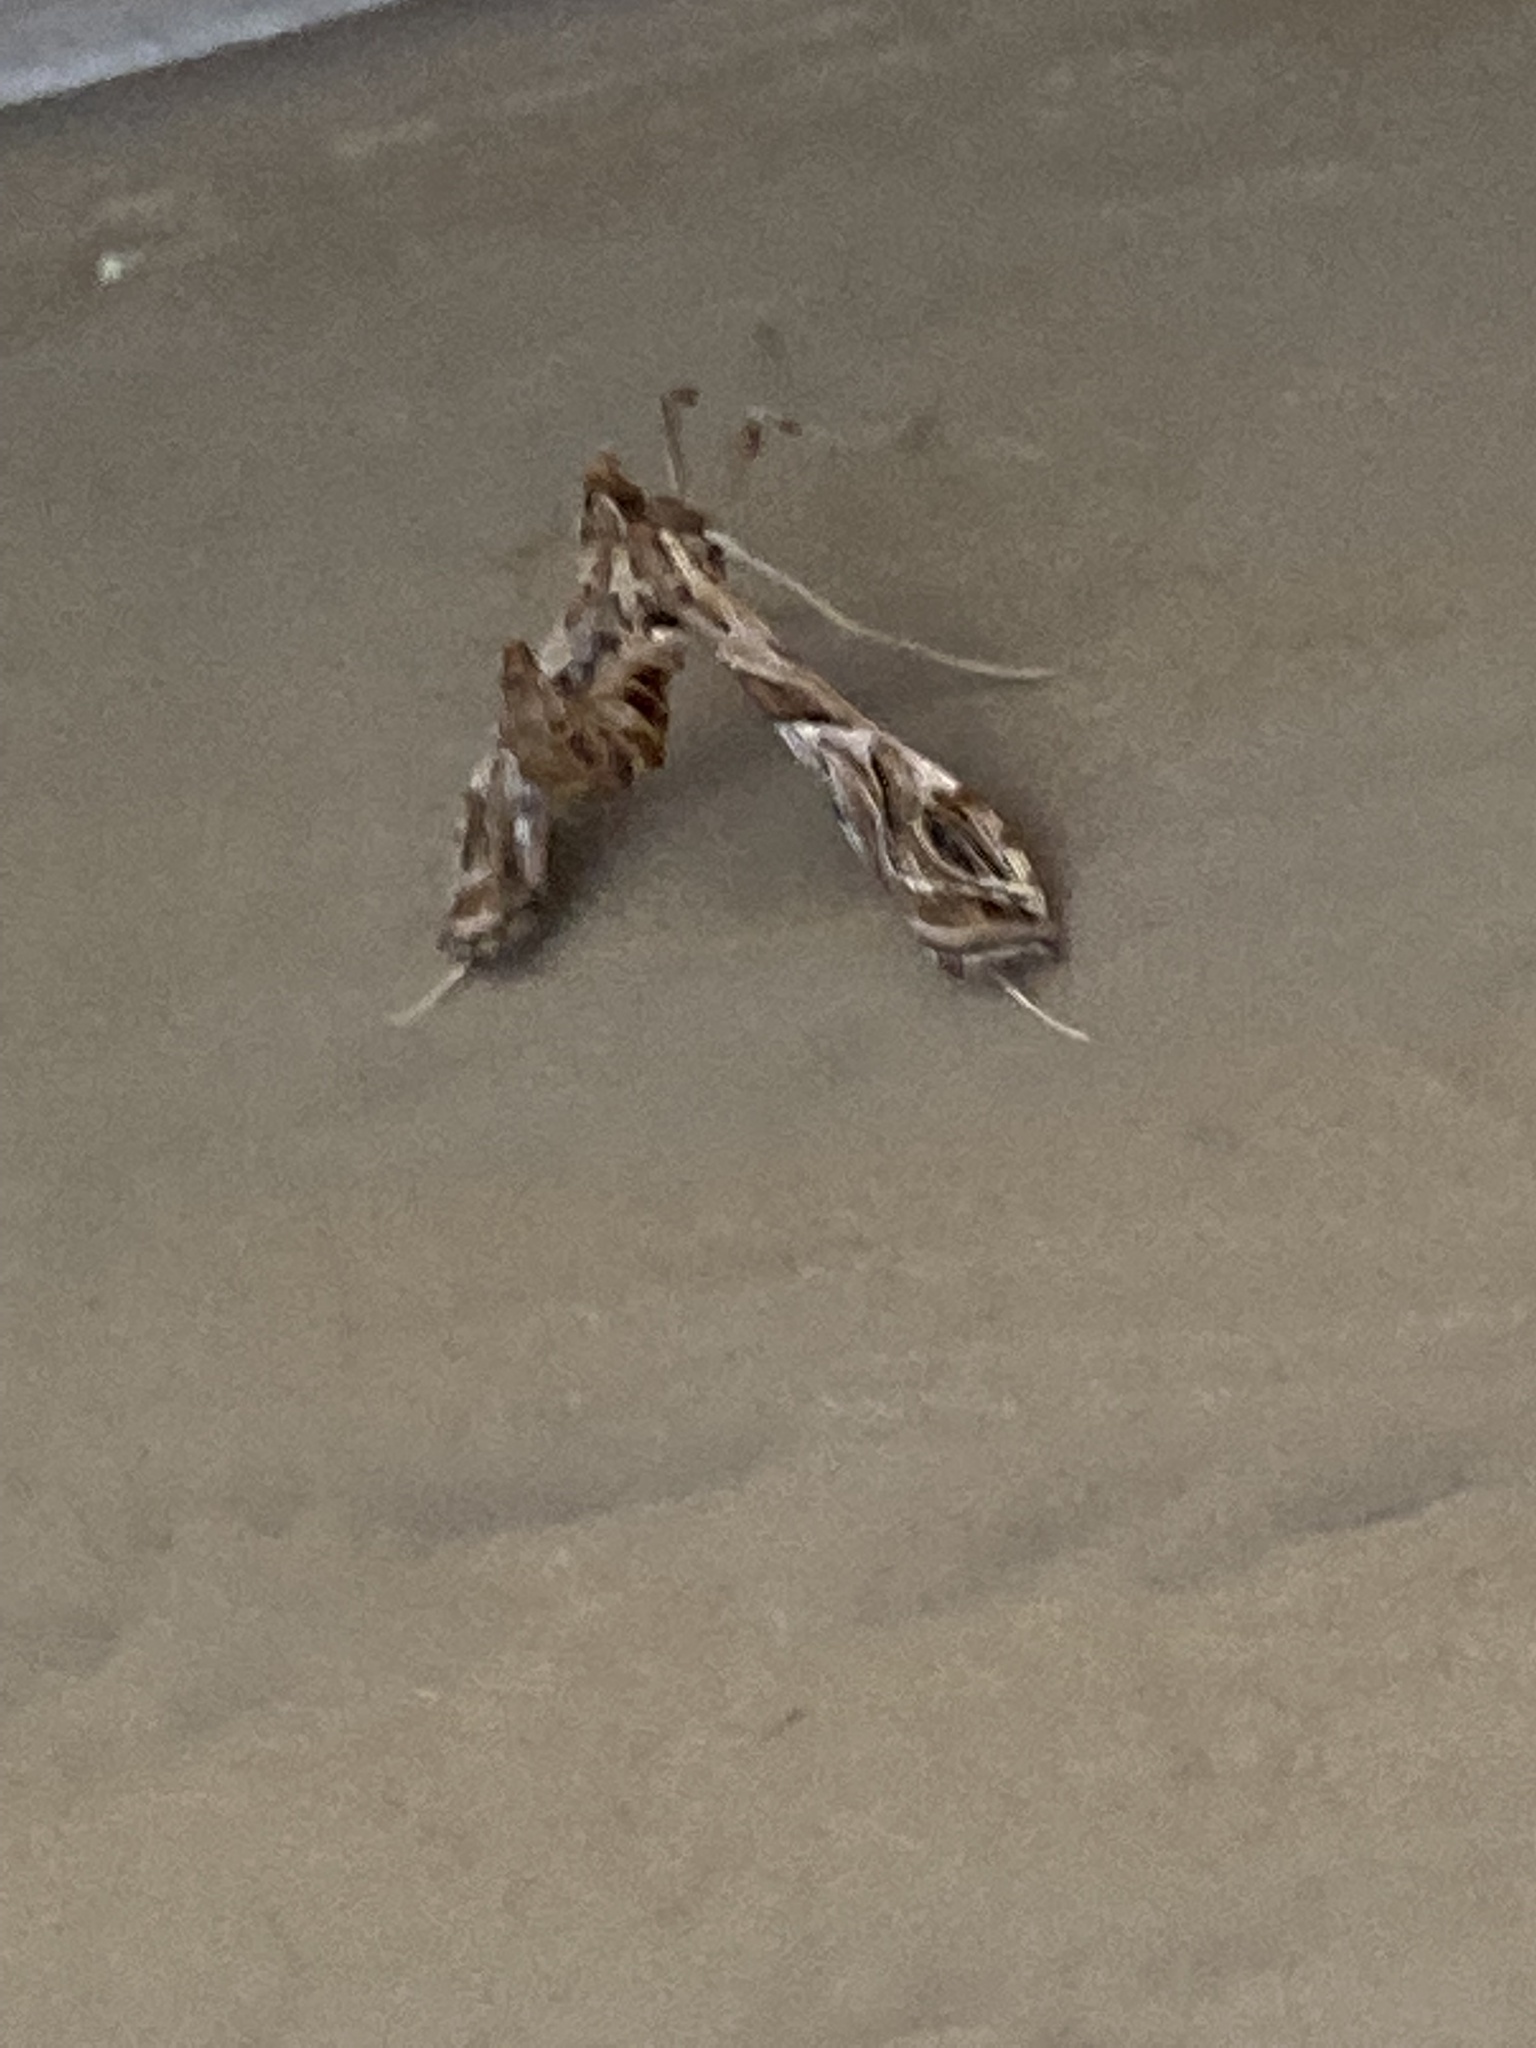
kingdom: Animalia
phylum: Arthropoda
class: Insecta
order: Lepidoptera
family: Crambidae
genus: Lineodes
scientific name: Lineodes interrupta
